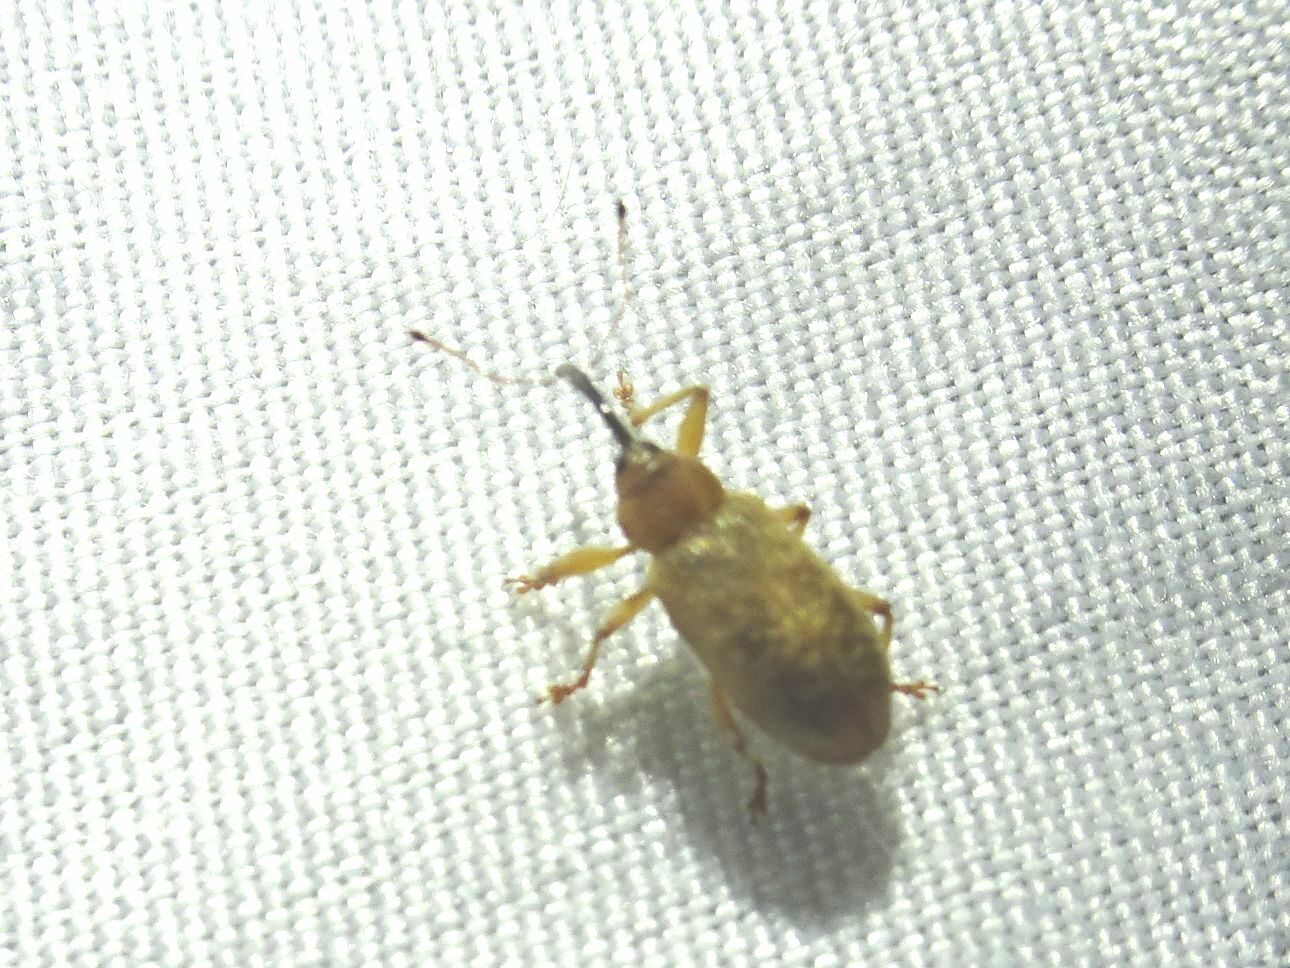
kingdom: Animalia
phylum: Arthropoda
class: Insecta
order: Coleoptera
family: Curculionidae
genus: Dorytomus
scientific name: Dorytomus longimanus
